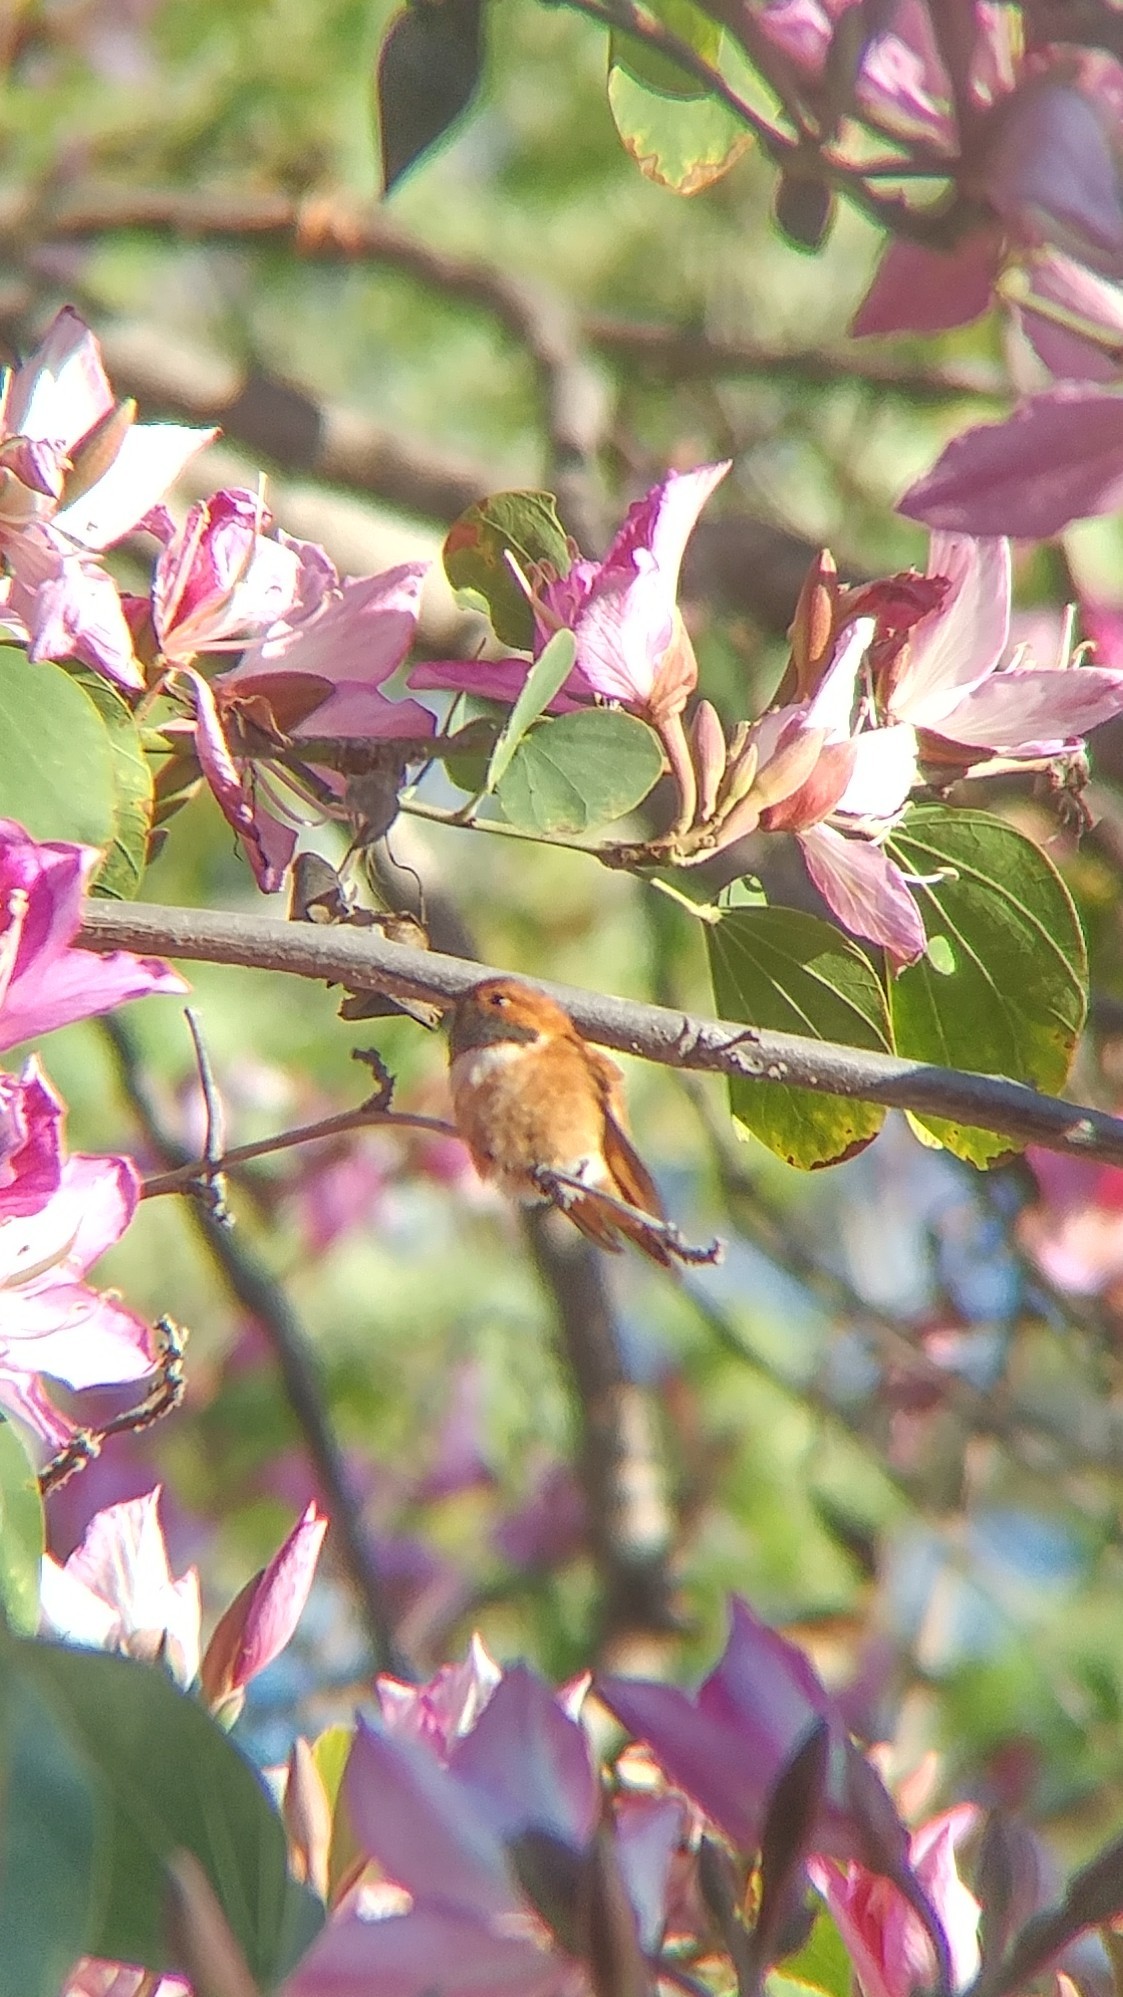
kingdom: Animalia
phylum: Chordata
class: Aves
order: Apodiformes
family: Trochilidae
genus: Selasphorus
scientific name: Selasphorus rufus
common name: Rufous hummingbird
